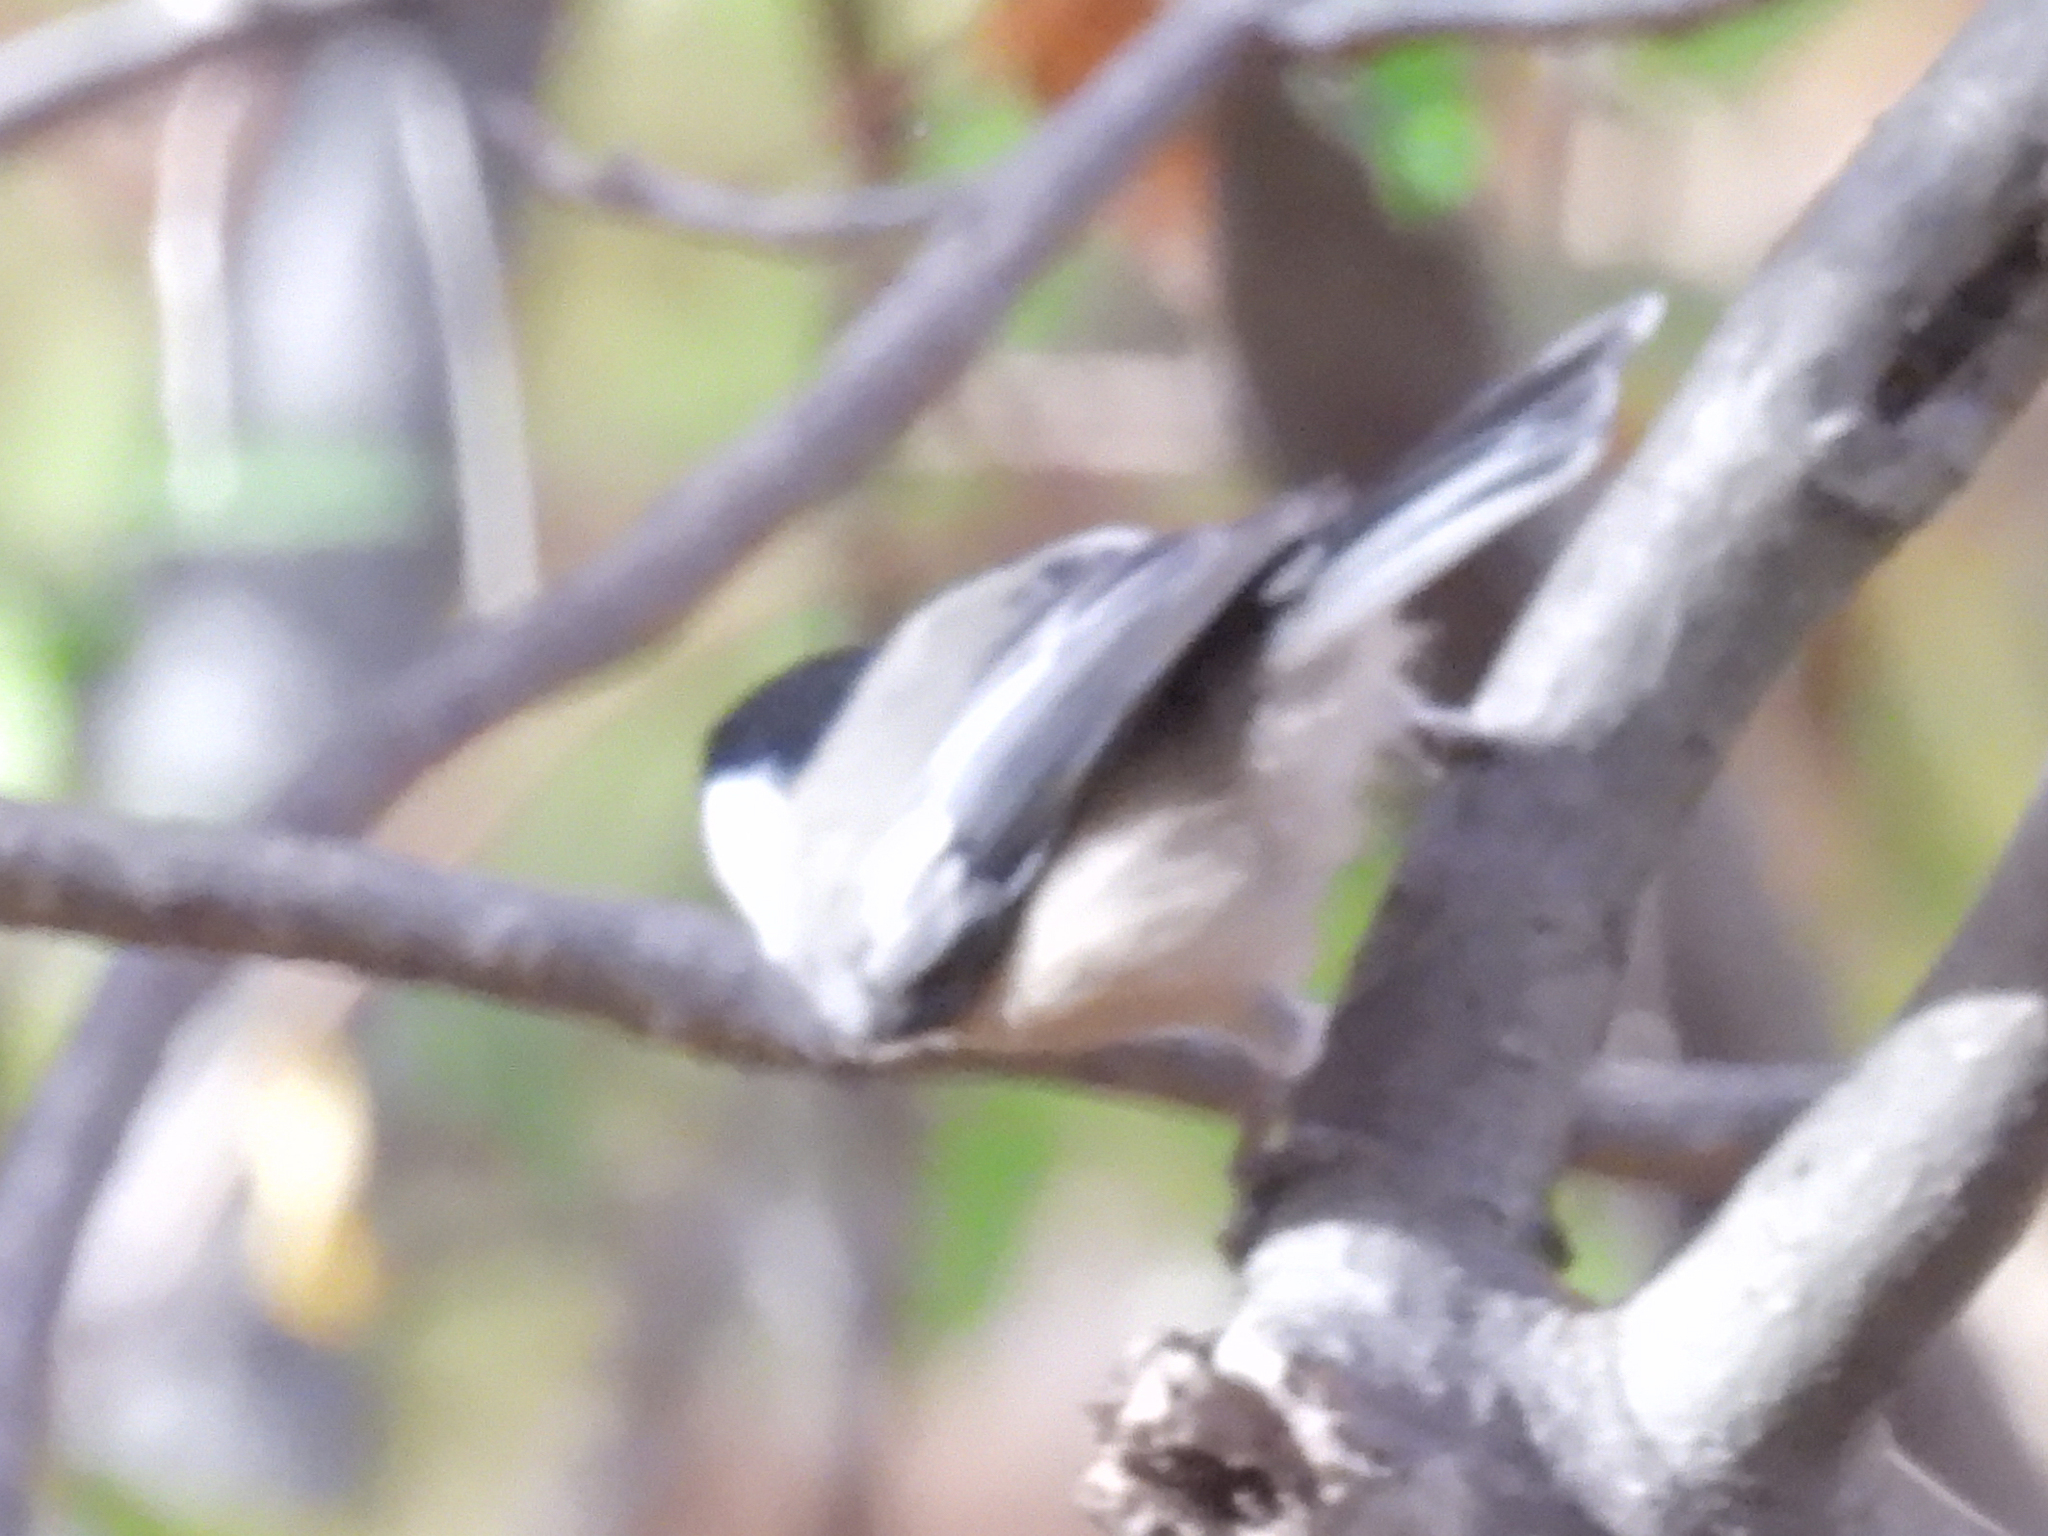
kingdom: Animalia
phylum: Chordata
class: Aves
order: Passeriformes
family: Paridae
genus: Poecile
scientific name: Poecile atricapillus
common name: Black-capped chickadee
